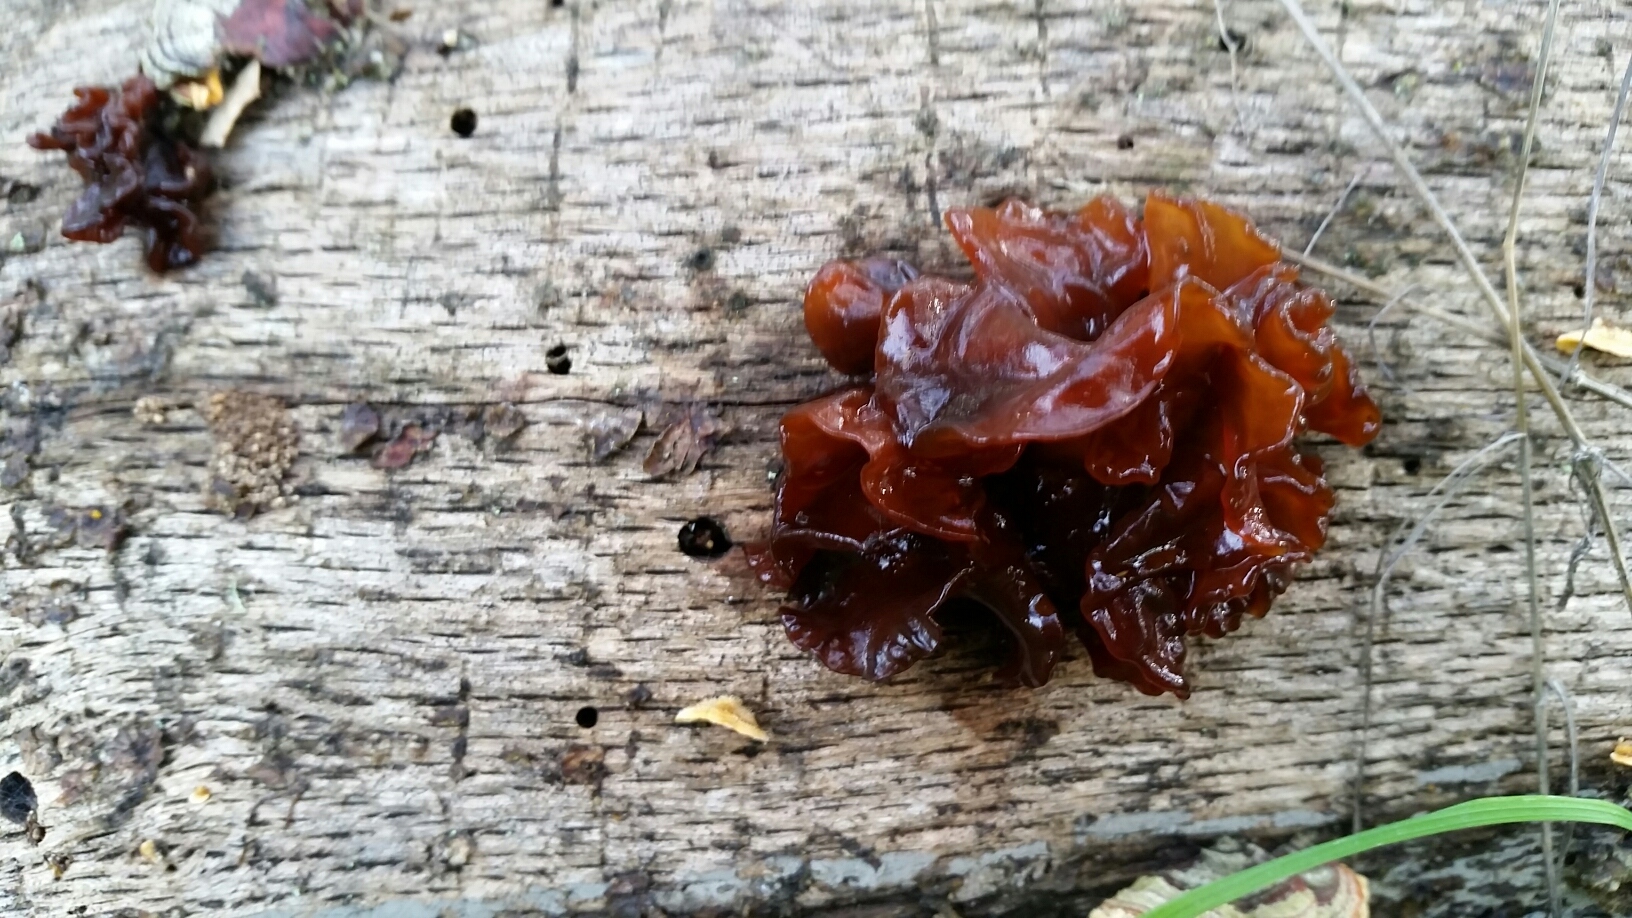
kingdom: Fungi
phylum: Basidiomycota
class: Tremellomycetes
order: Tremellales
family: Tremellaceae
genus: Phaeotremella
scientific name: Phaeotremella foliacea
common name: Leafy brain
